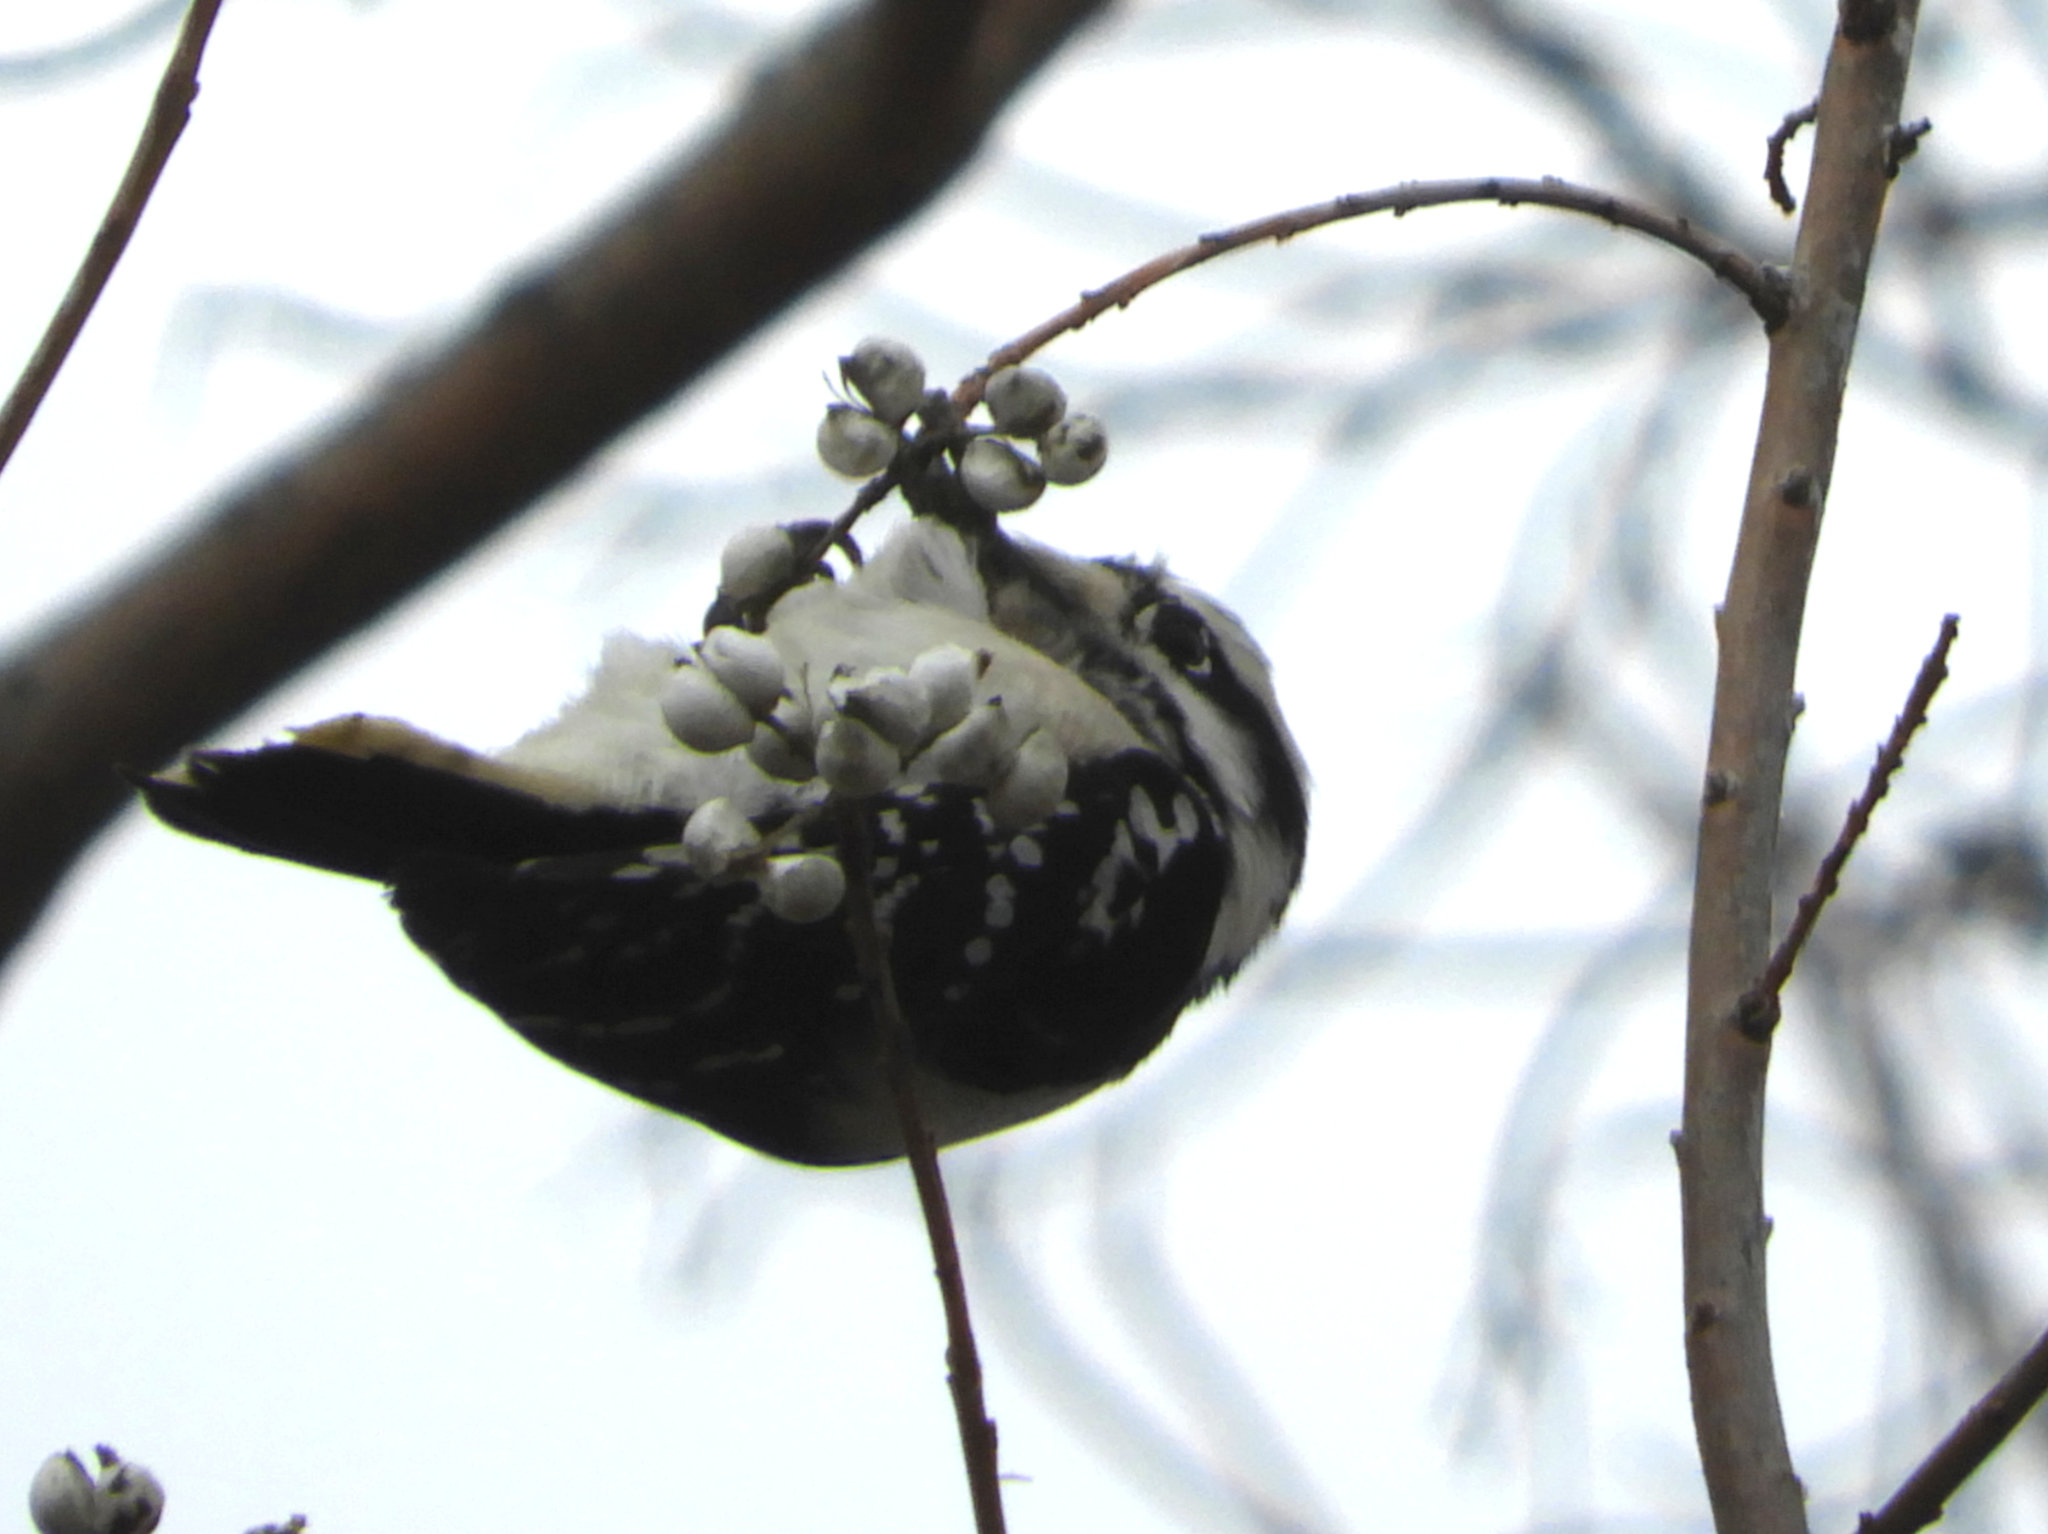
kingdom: Animalia
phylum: Chordata
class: Aves
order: Piciformes
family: Picidae
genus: Dryobates
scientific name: Dryobates pubescens
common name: Downy woodpecker
